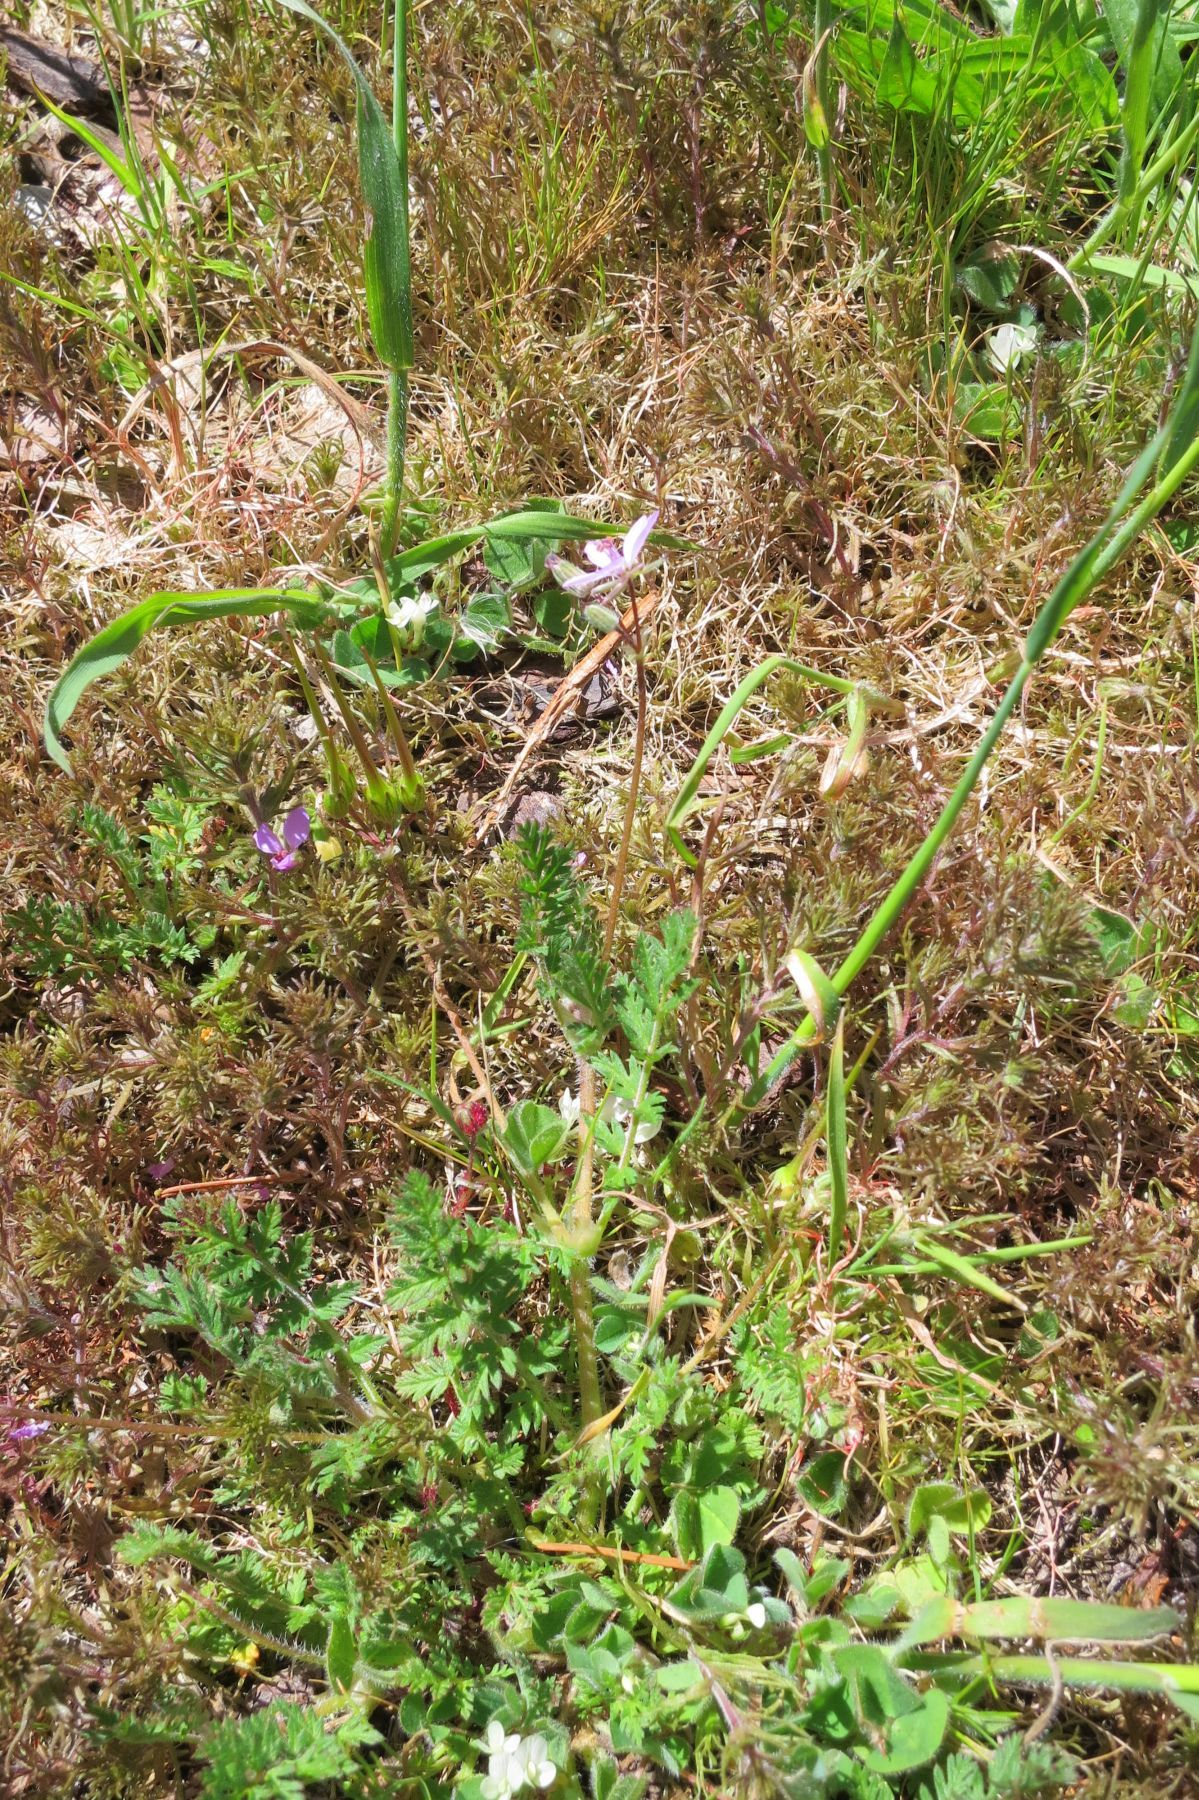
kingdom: Plantae
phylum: Tracheophyta
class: Magnoliopsida
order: Geraniales
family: Geraniaceae
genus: Erodium
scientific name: Erodium cicutarium
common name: Common stork's-bill
